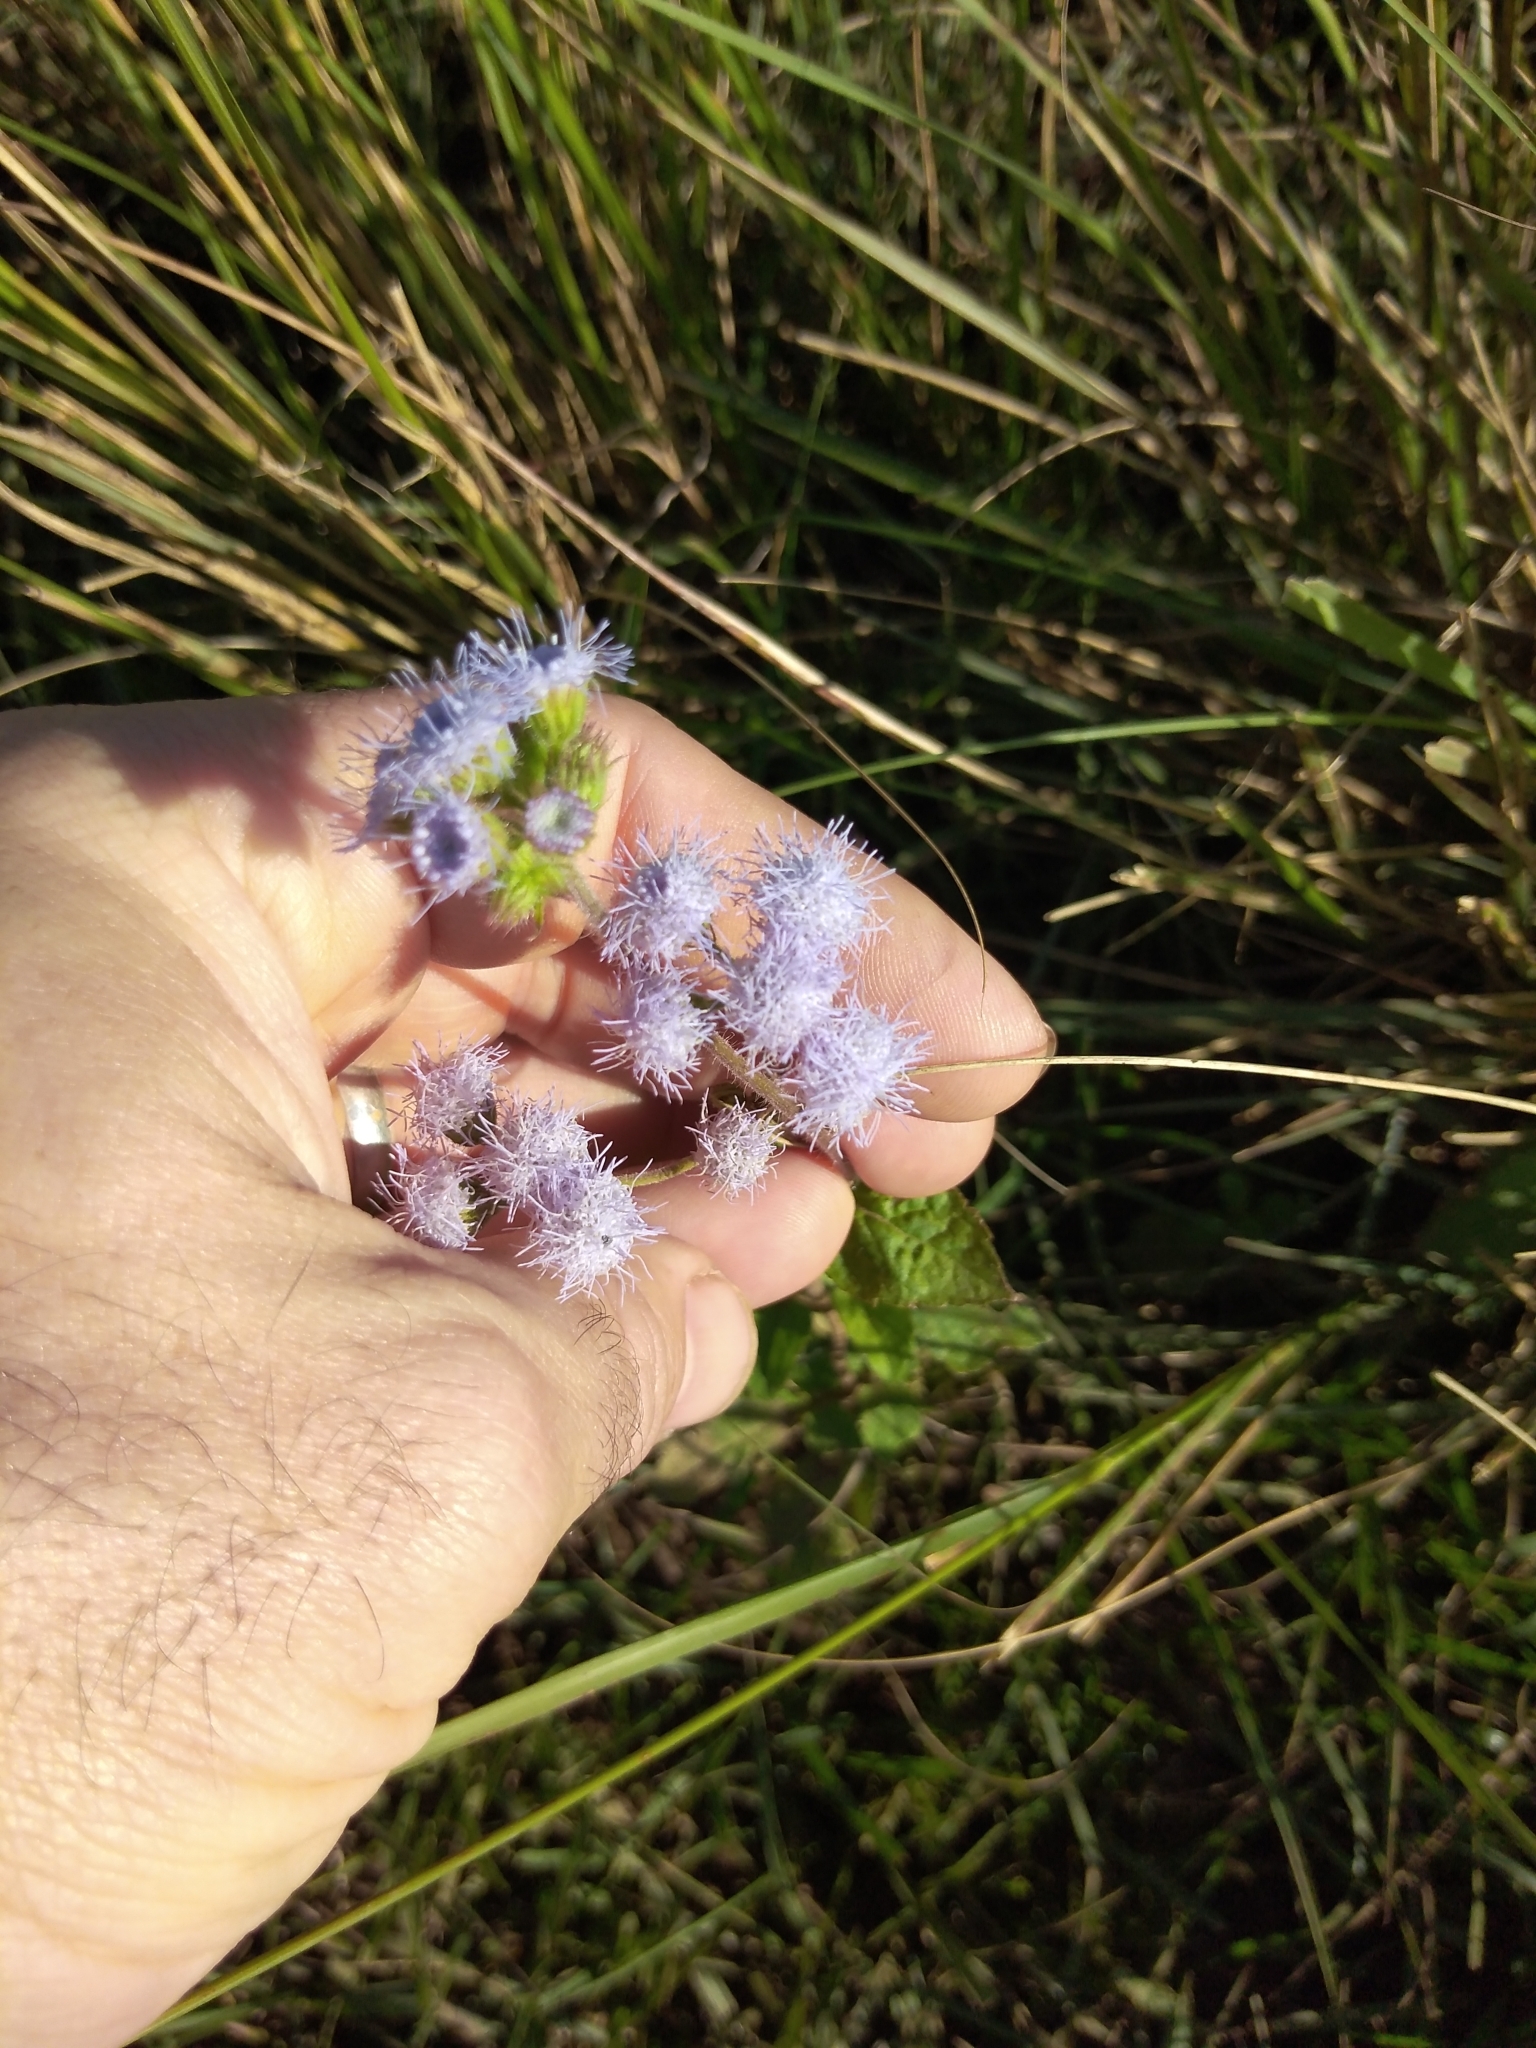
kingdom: Plantae
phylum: Tracheophyta
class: Magnoliopsida
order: Asterales
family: Asteraceae
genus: Ageratum
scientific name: Ageratum houstonianum
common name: Bluemink
